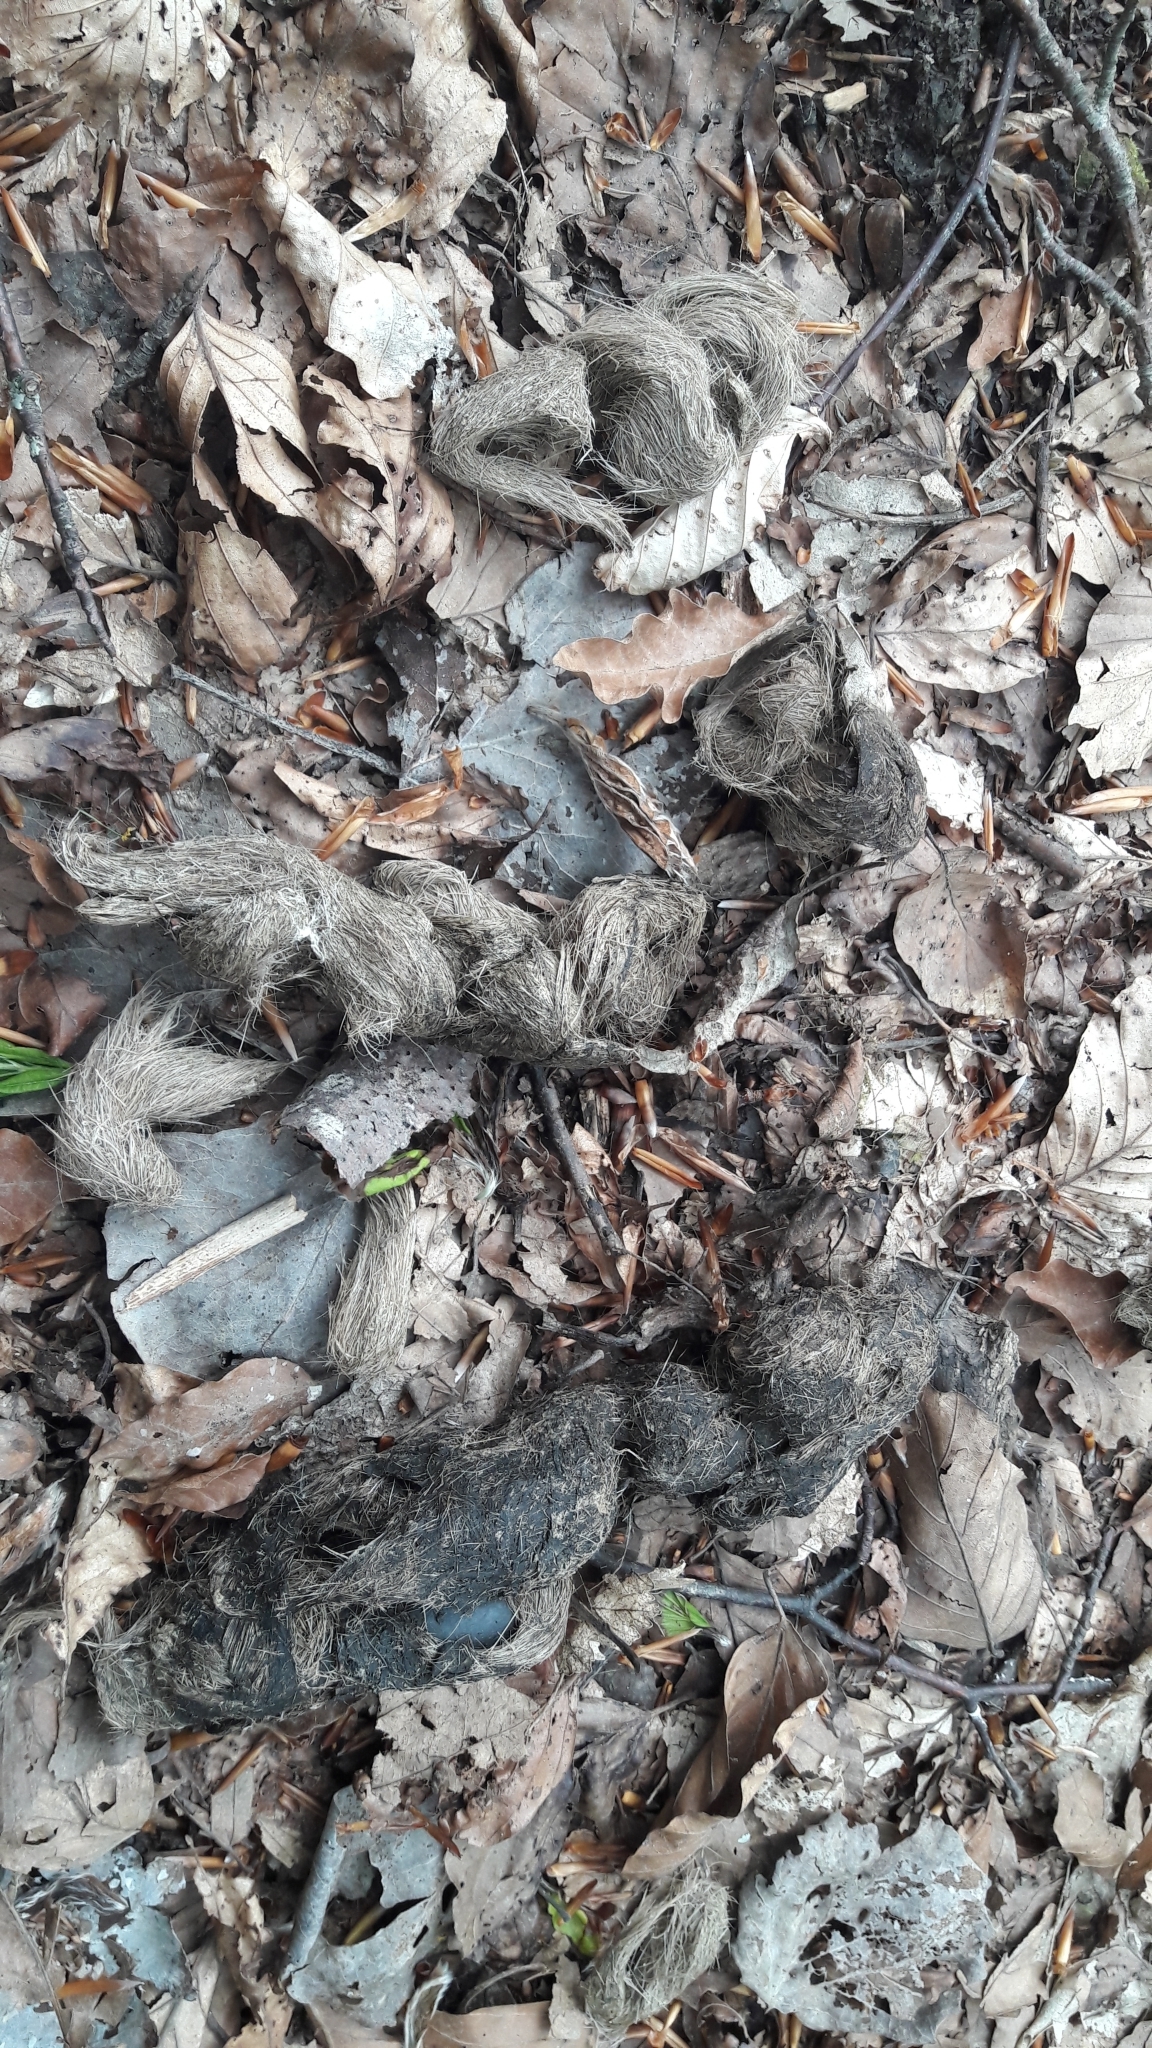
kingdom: Animalia
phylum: Chordata
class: Mammalia
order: Carnivora
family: Canidae
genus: Canis
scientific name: Canis lupus
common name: Gray wolf
